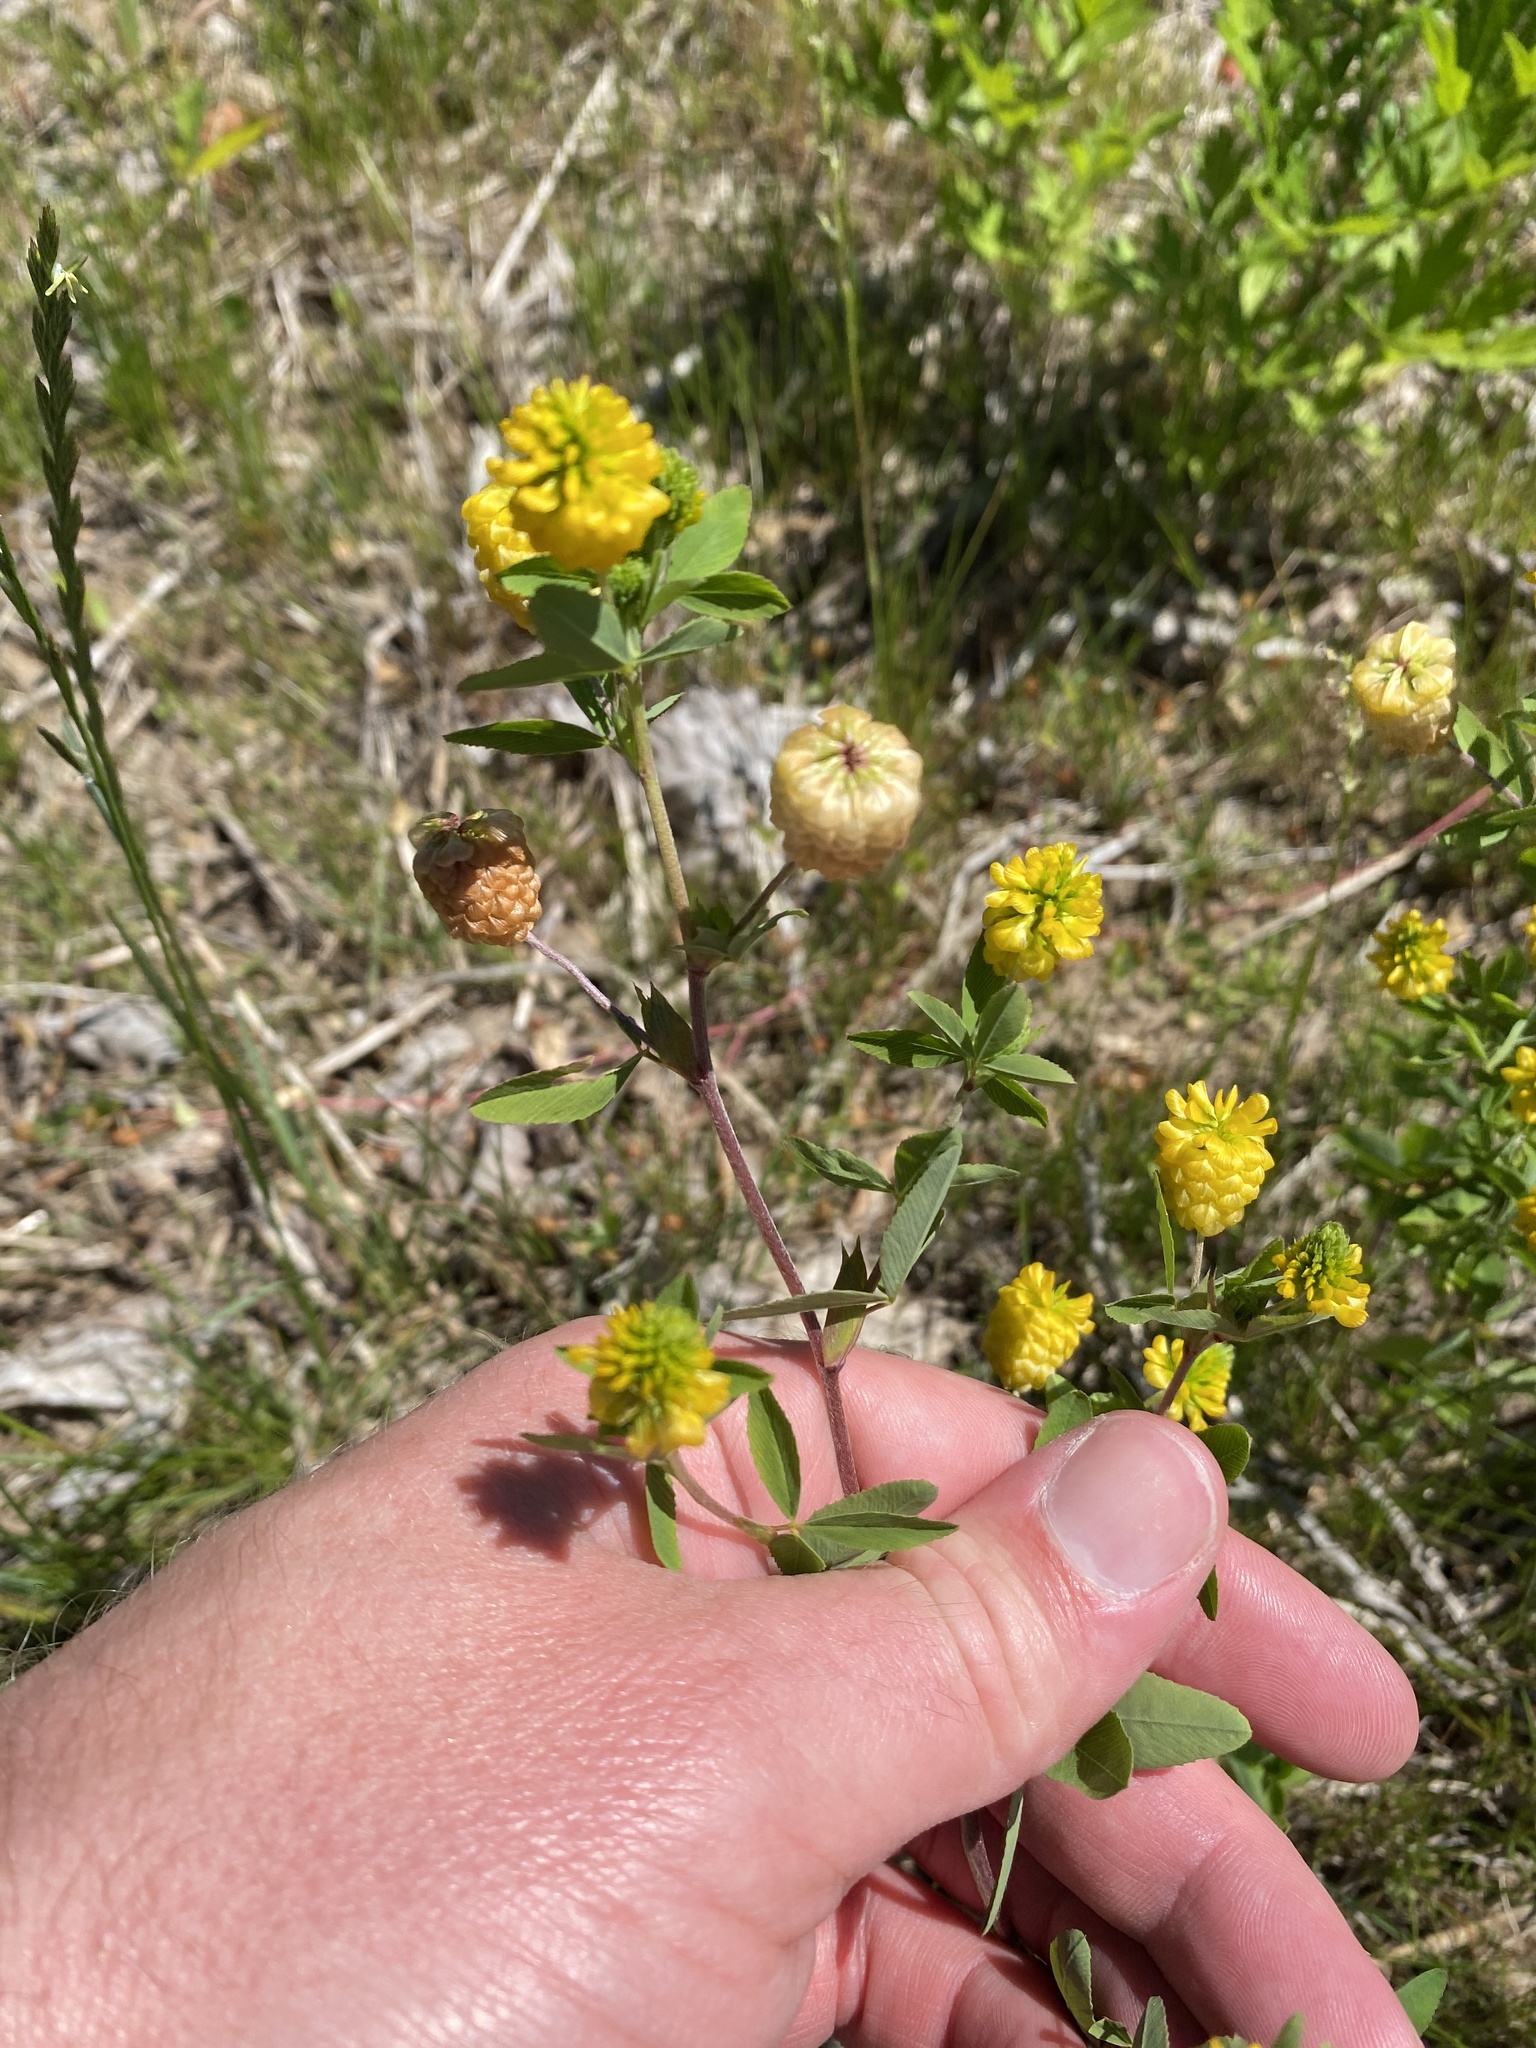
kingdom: Plantae
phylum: Tracheophyta
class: Magnoliopsida
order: Fabales
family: Fabaceae
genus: Trifolium
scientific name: Trifolium aureum
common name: Golden clover
